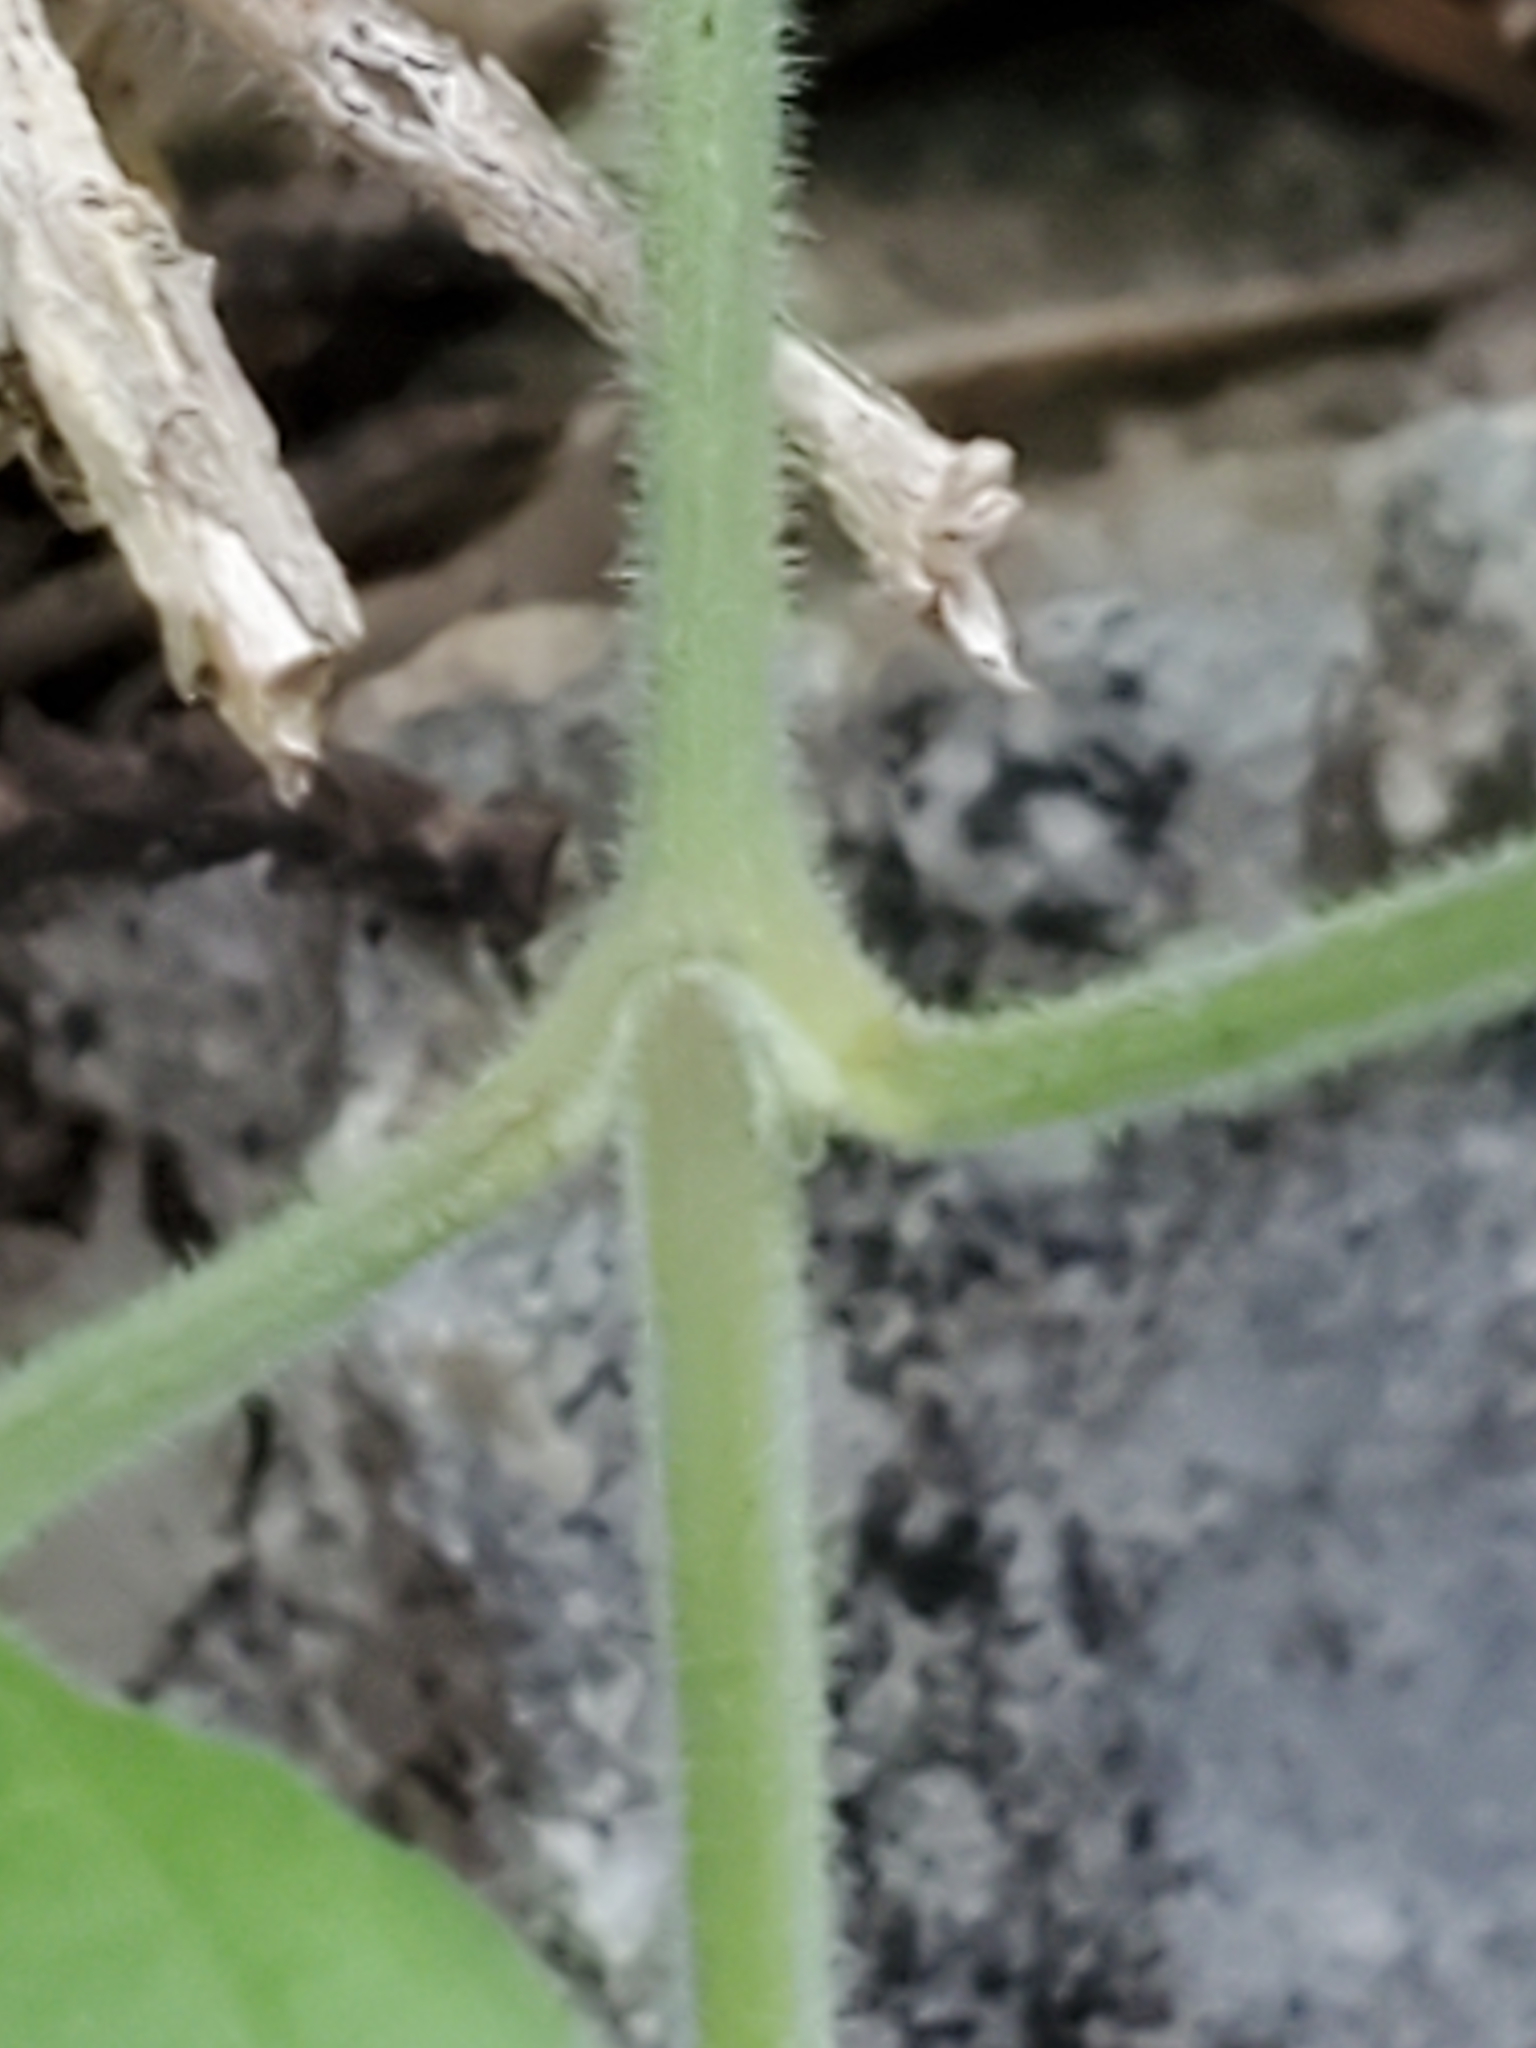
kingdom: Plantae
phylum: Tracheophyta
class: Magnoliopsida
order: Solanales
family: Solanaceae
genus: Physalis
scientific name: Physalis cinerascens
